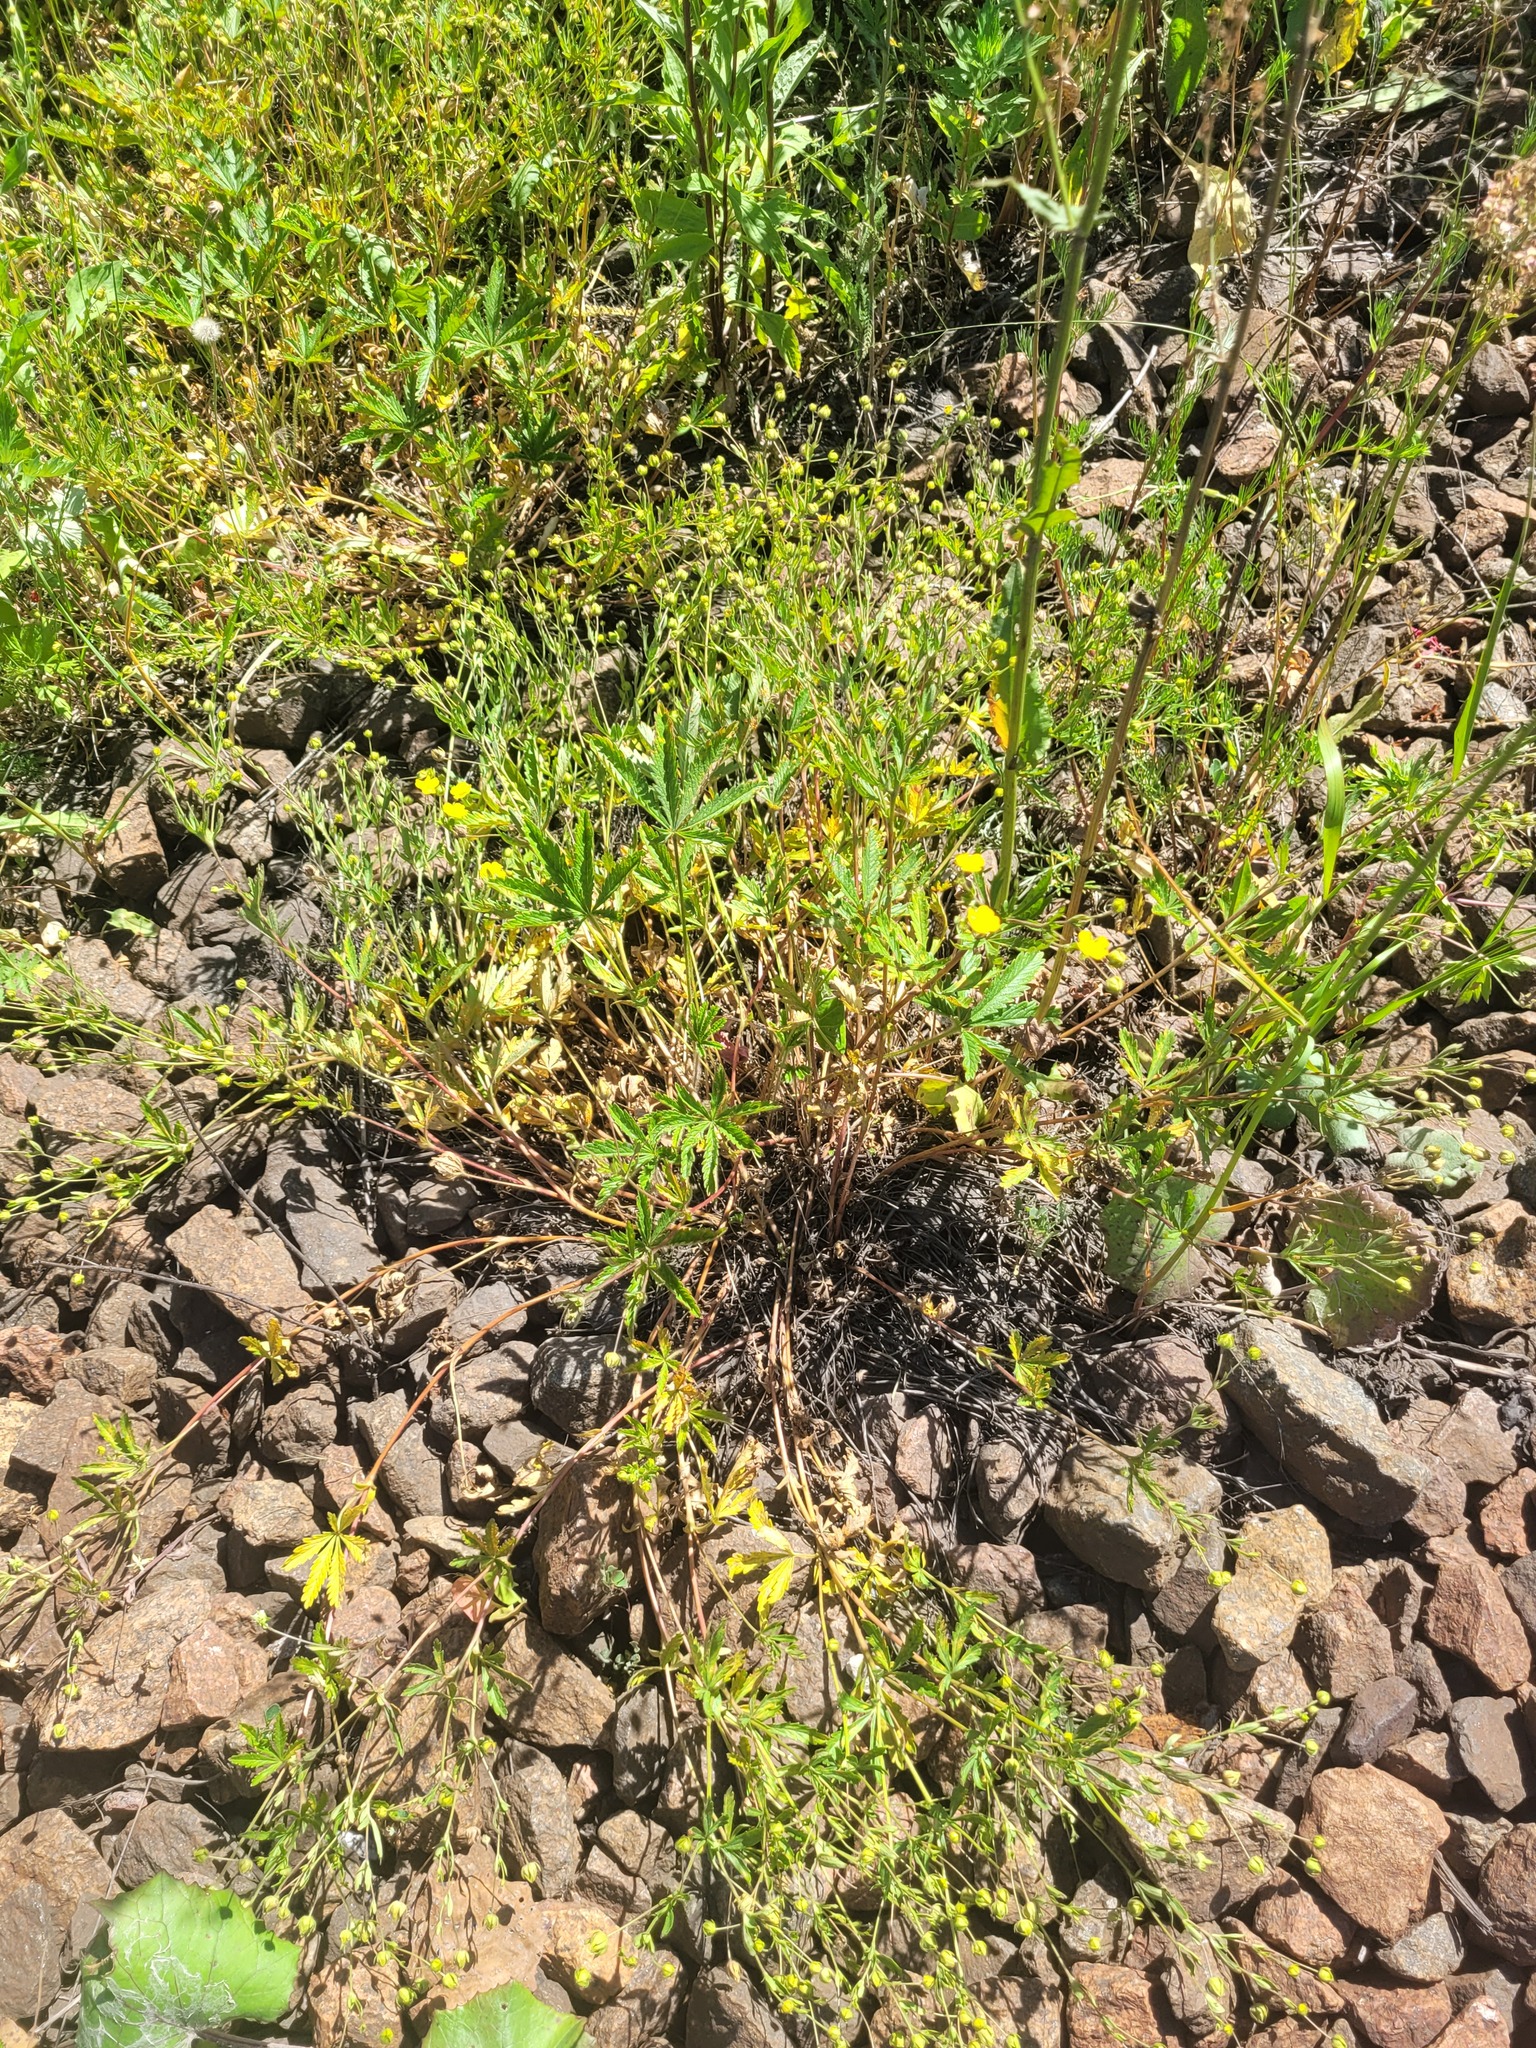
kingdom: Plantae
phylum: Tracheophyta
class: Magnoliopsida
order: Rosales
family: Rosaceae
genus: Potentilla
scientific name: Potentilla thuringiaca
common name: European cinquefoil
